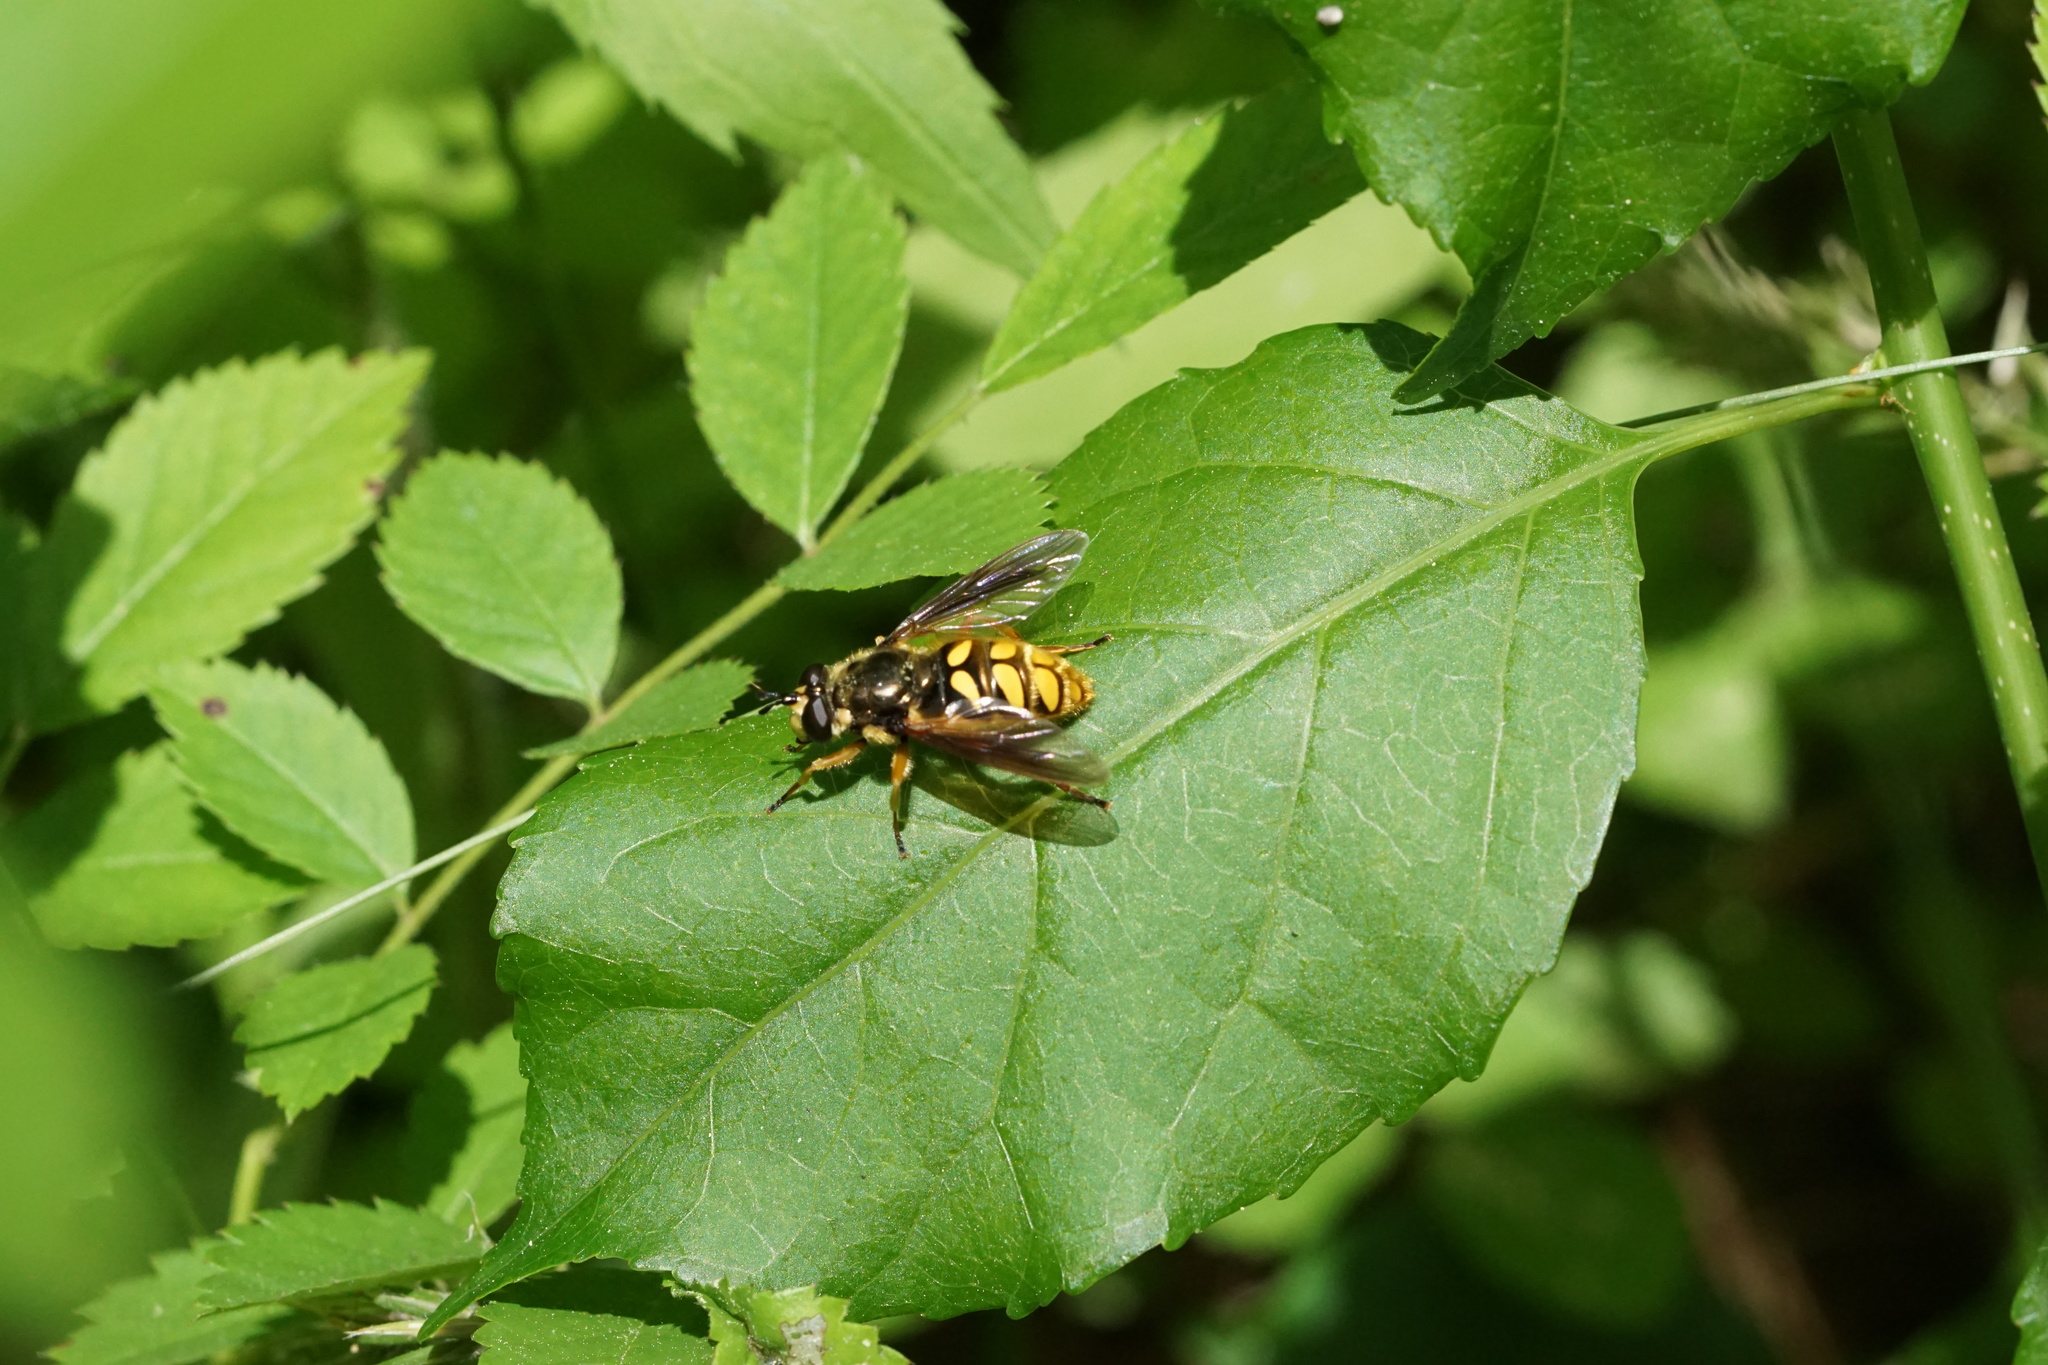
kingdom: Animalia
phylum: Arthropoda
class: Insecta
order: Diptera
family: Syrphidae
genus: Somula
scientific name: Somula decora
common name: Spotted wood fly
